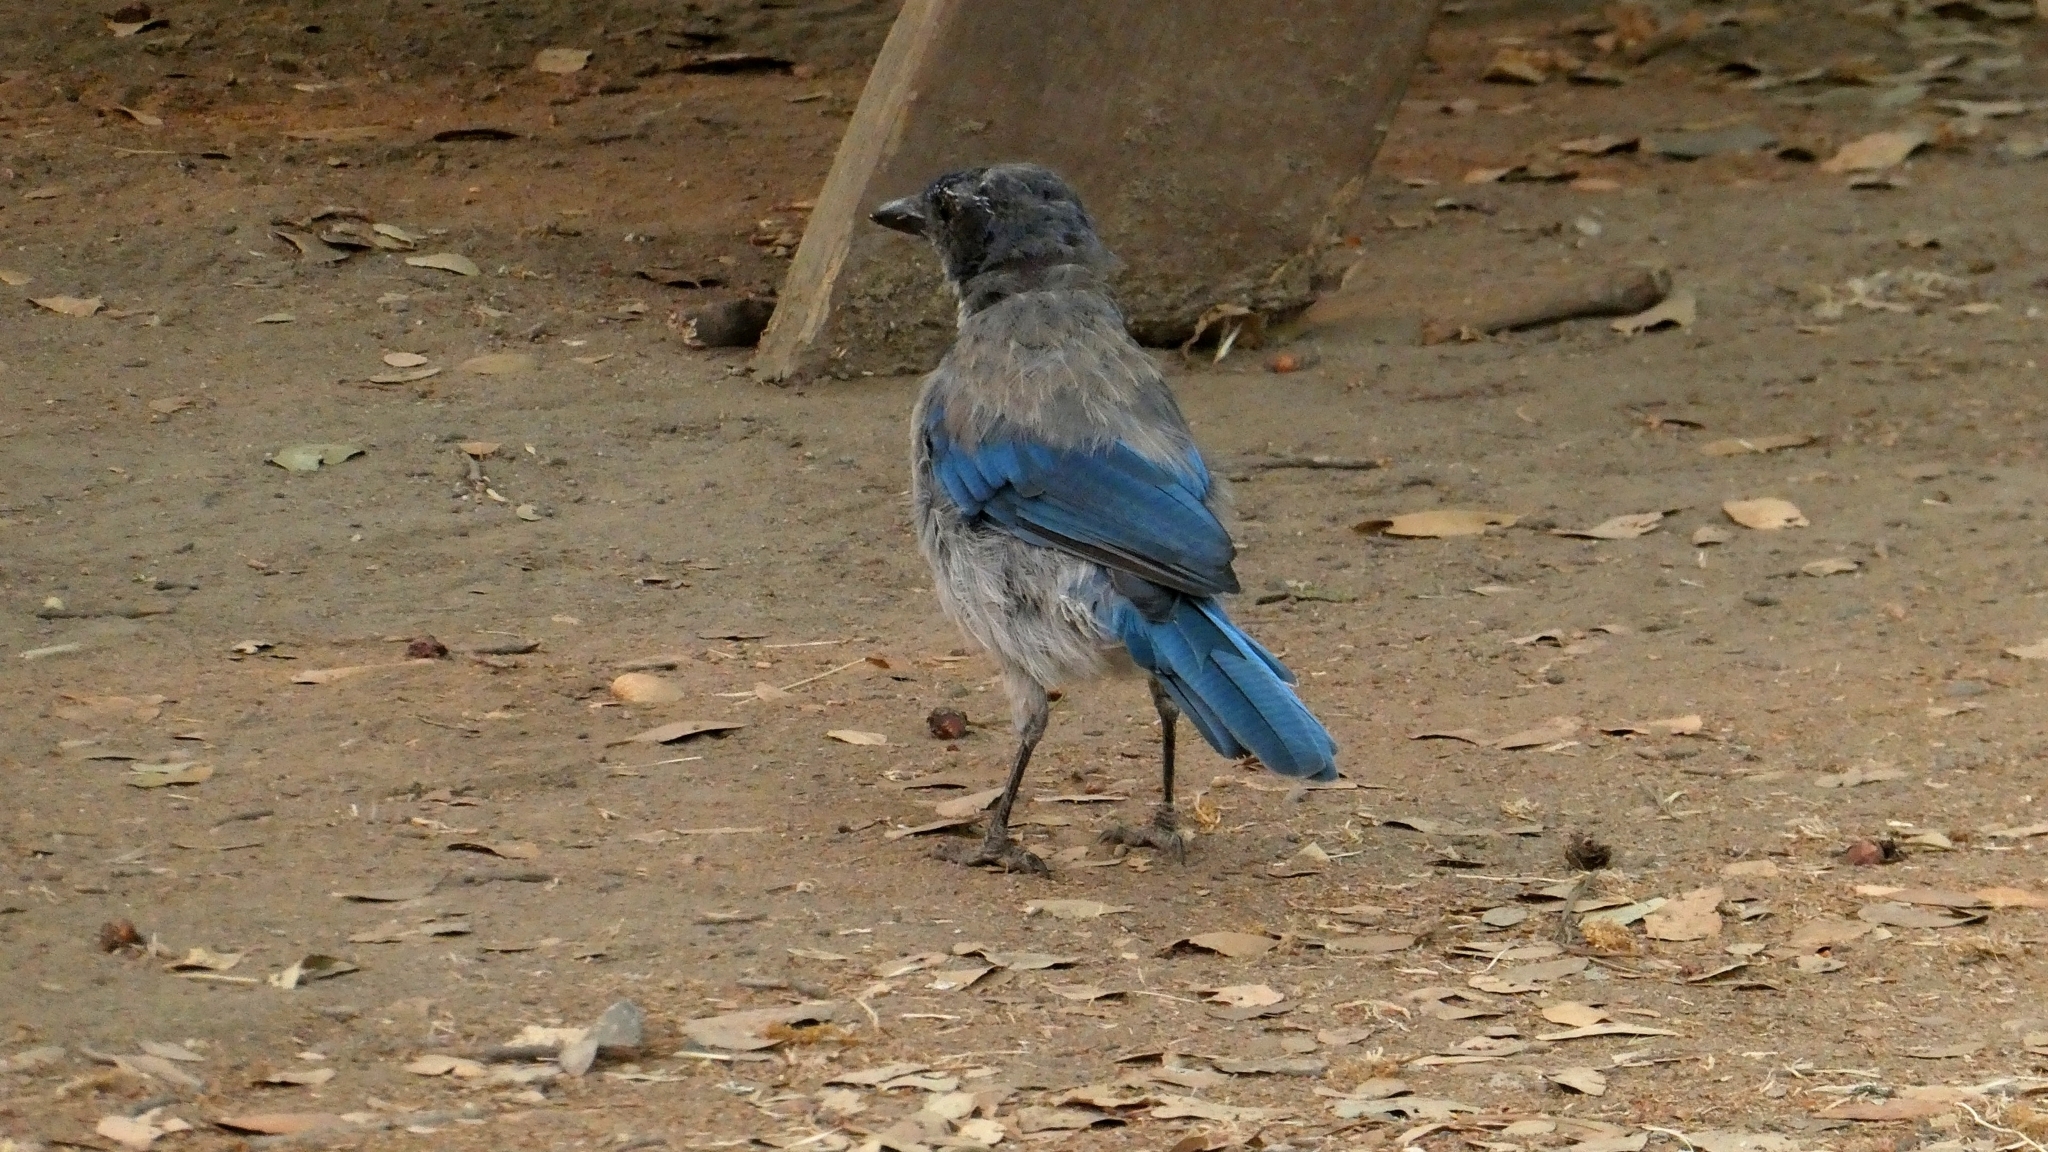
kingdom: Animalia
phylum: Chordata
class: Aves
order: Passeriformes
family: Corvidae
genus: Aphelocoma
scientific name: Aphelocoma californica
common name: California scrub-jay
